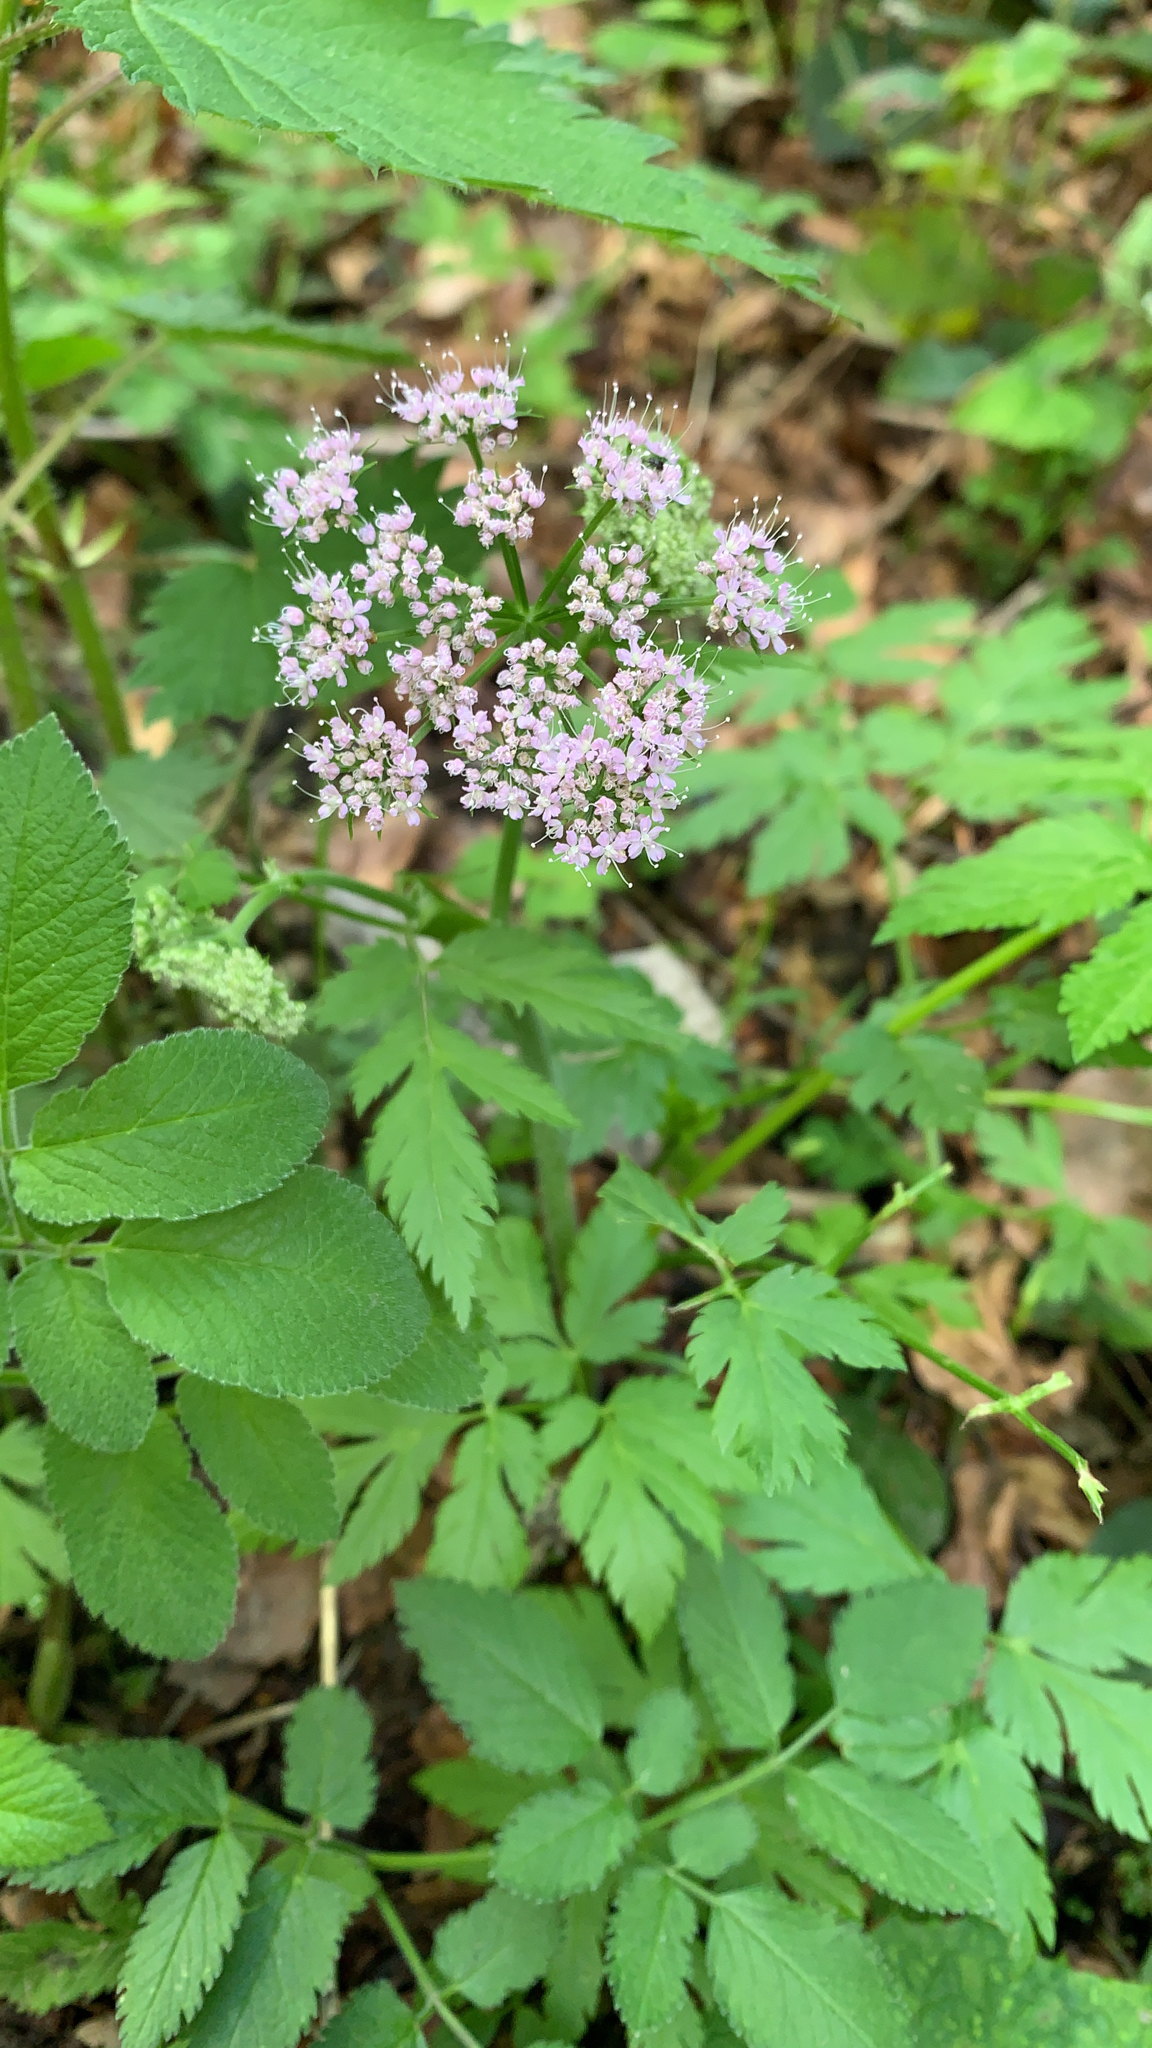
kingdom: Plantae
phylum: Tracheophyta
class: Magnoliopsida
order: Apiales
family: Apiaceae
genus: Chaerophyllum
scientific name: Chaerophyllum hirsutum
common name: Hairy chervil
